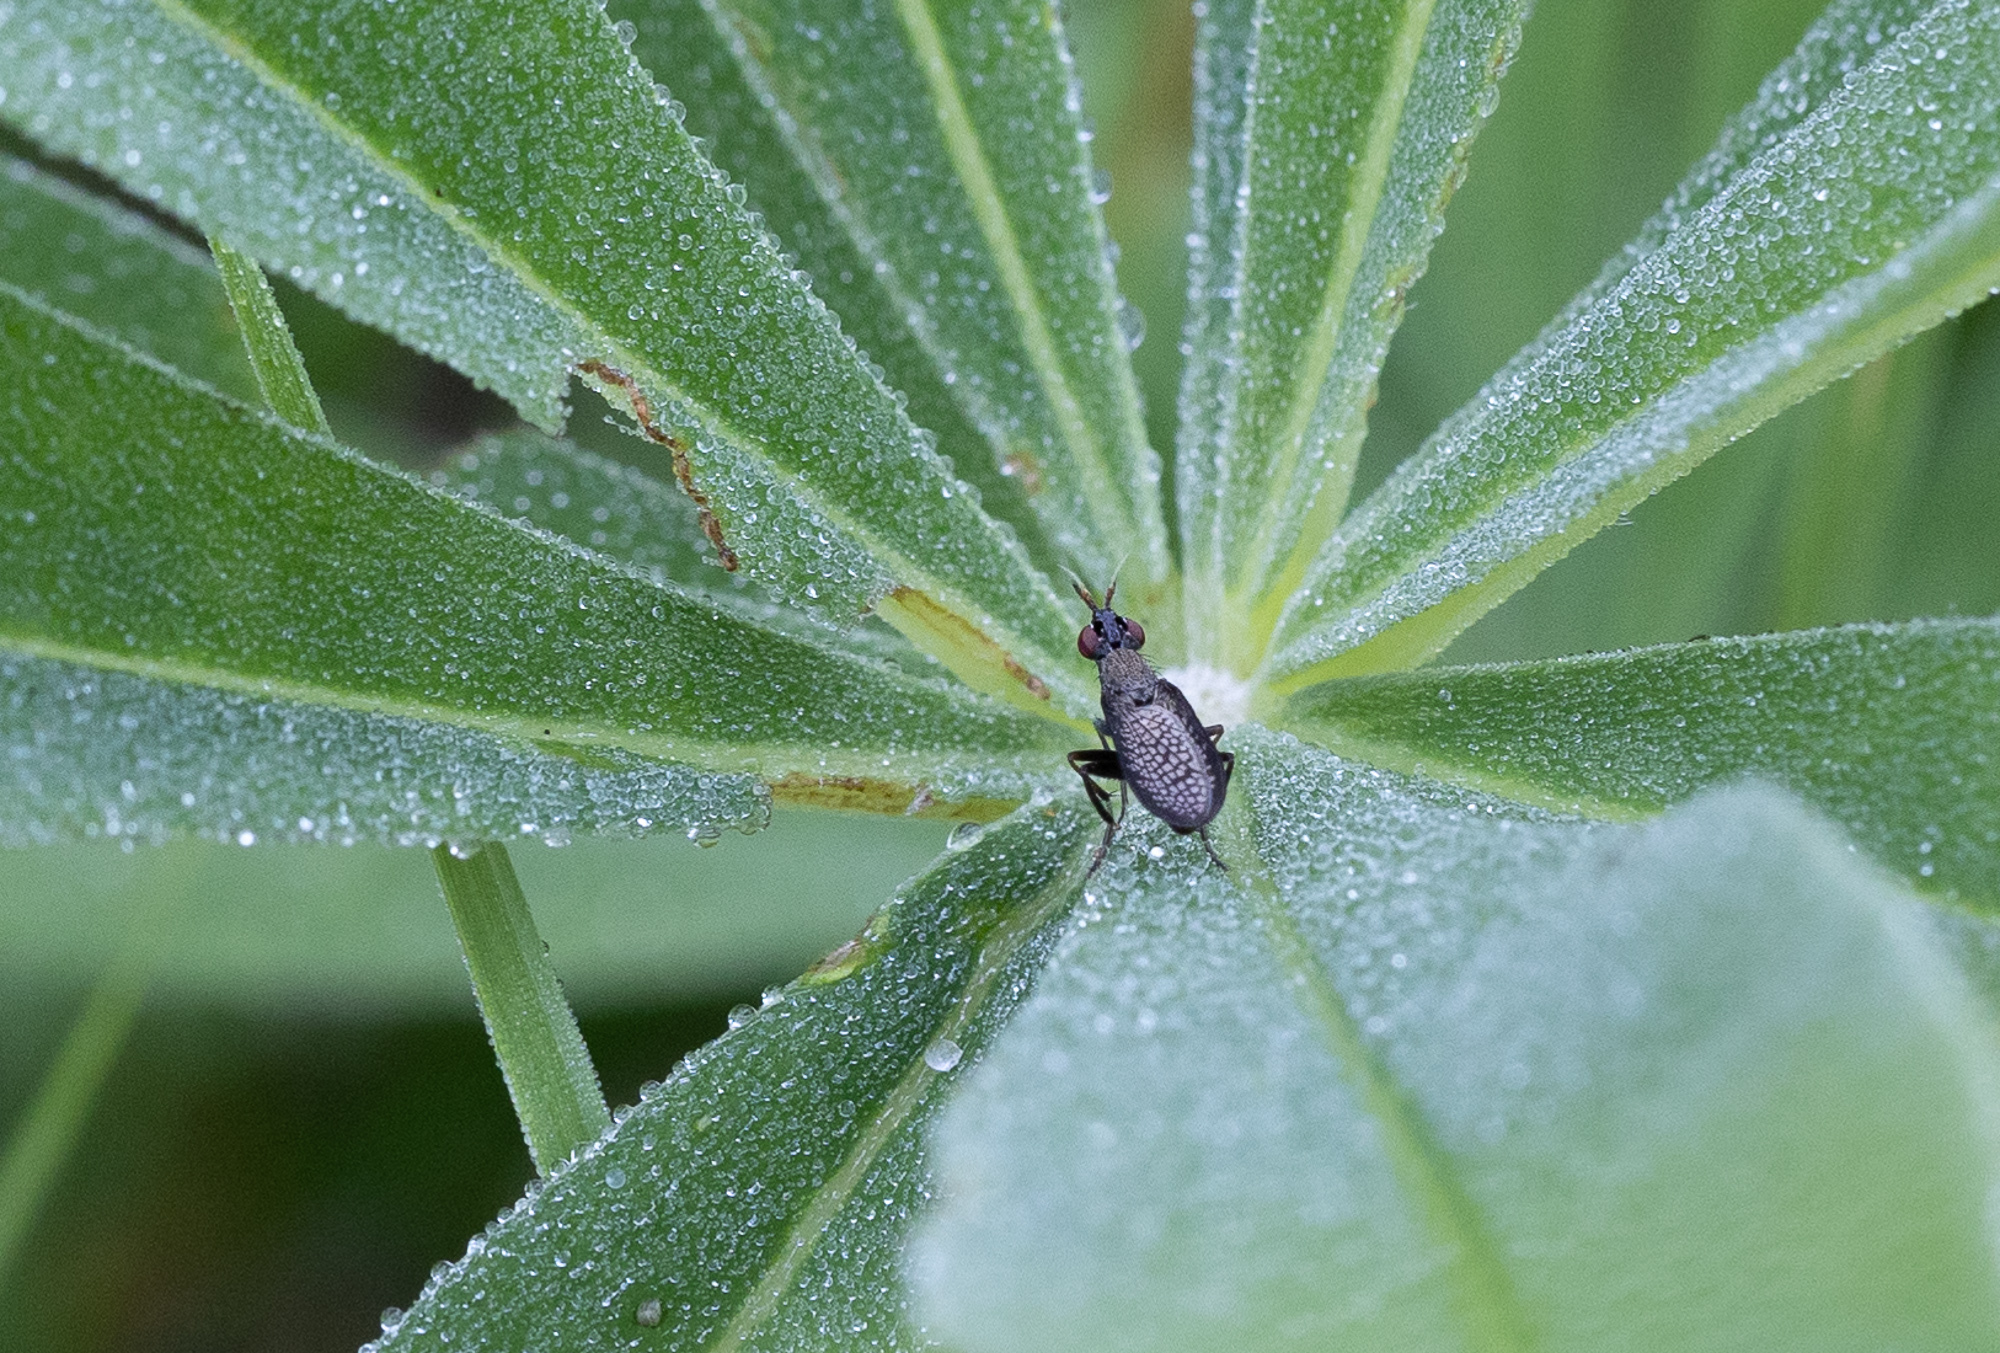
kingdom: Animalia
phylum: Arthropoda
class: Insecta
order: Diptera
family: Sciomyzidae
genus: Coremacera
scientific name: Coremacera marginata
